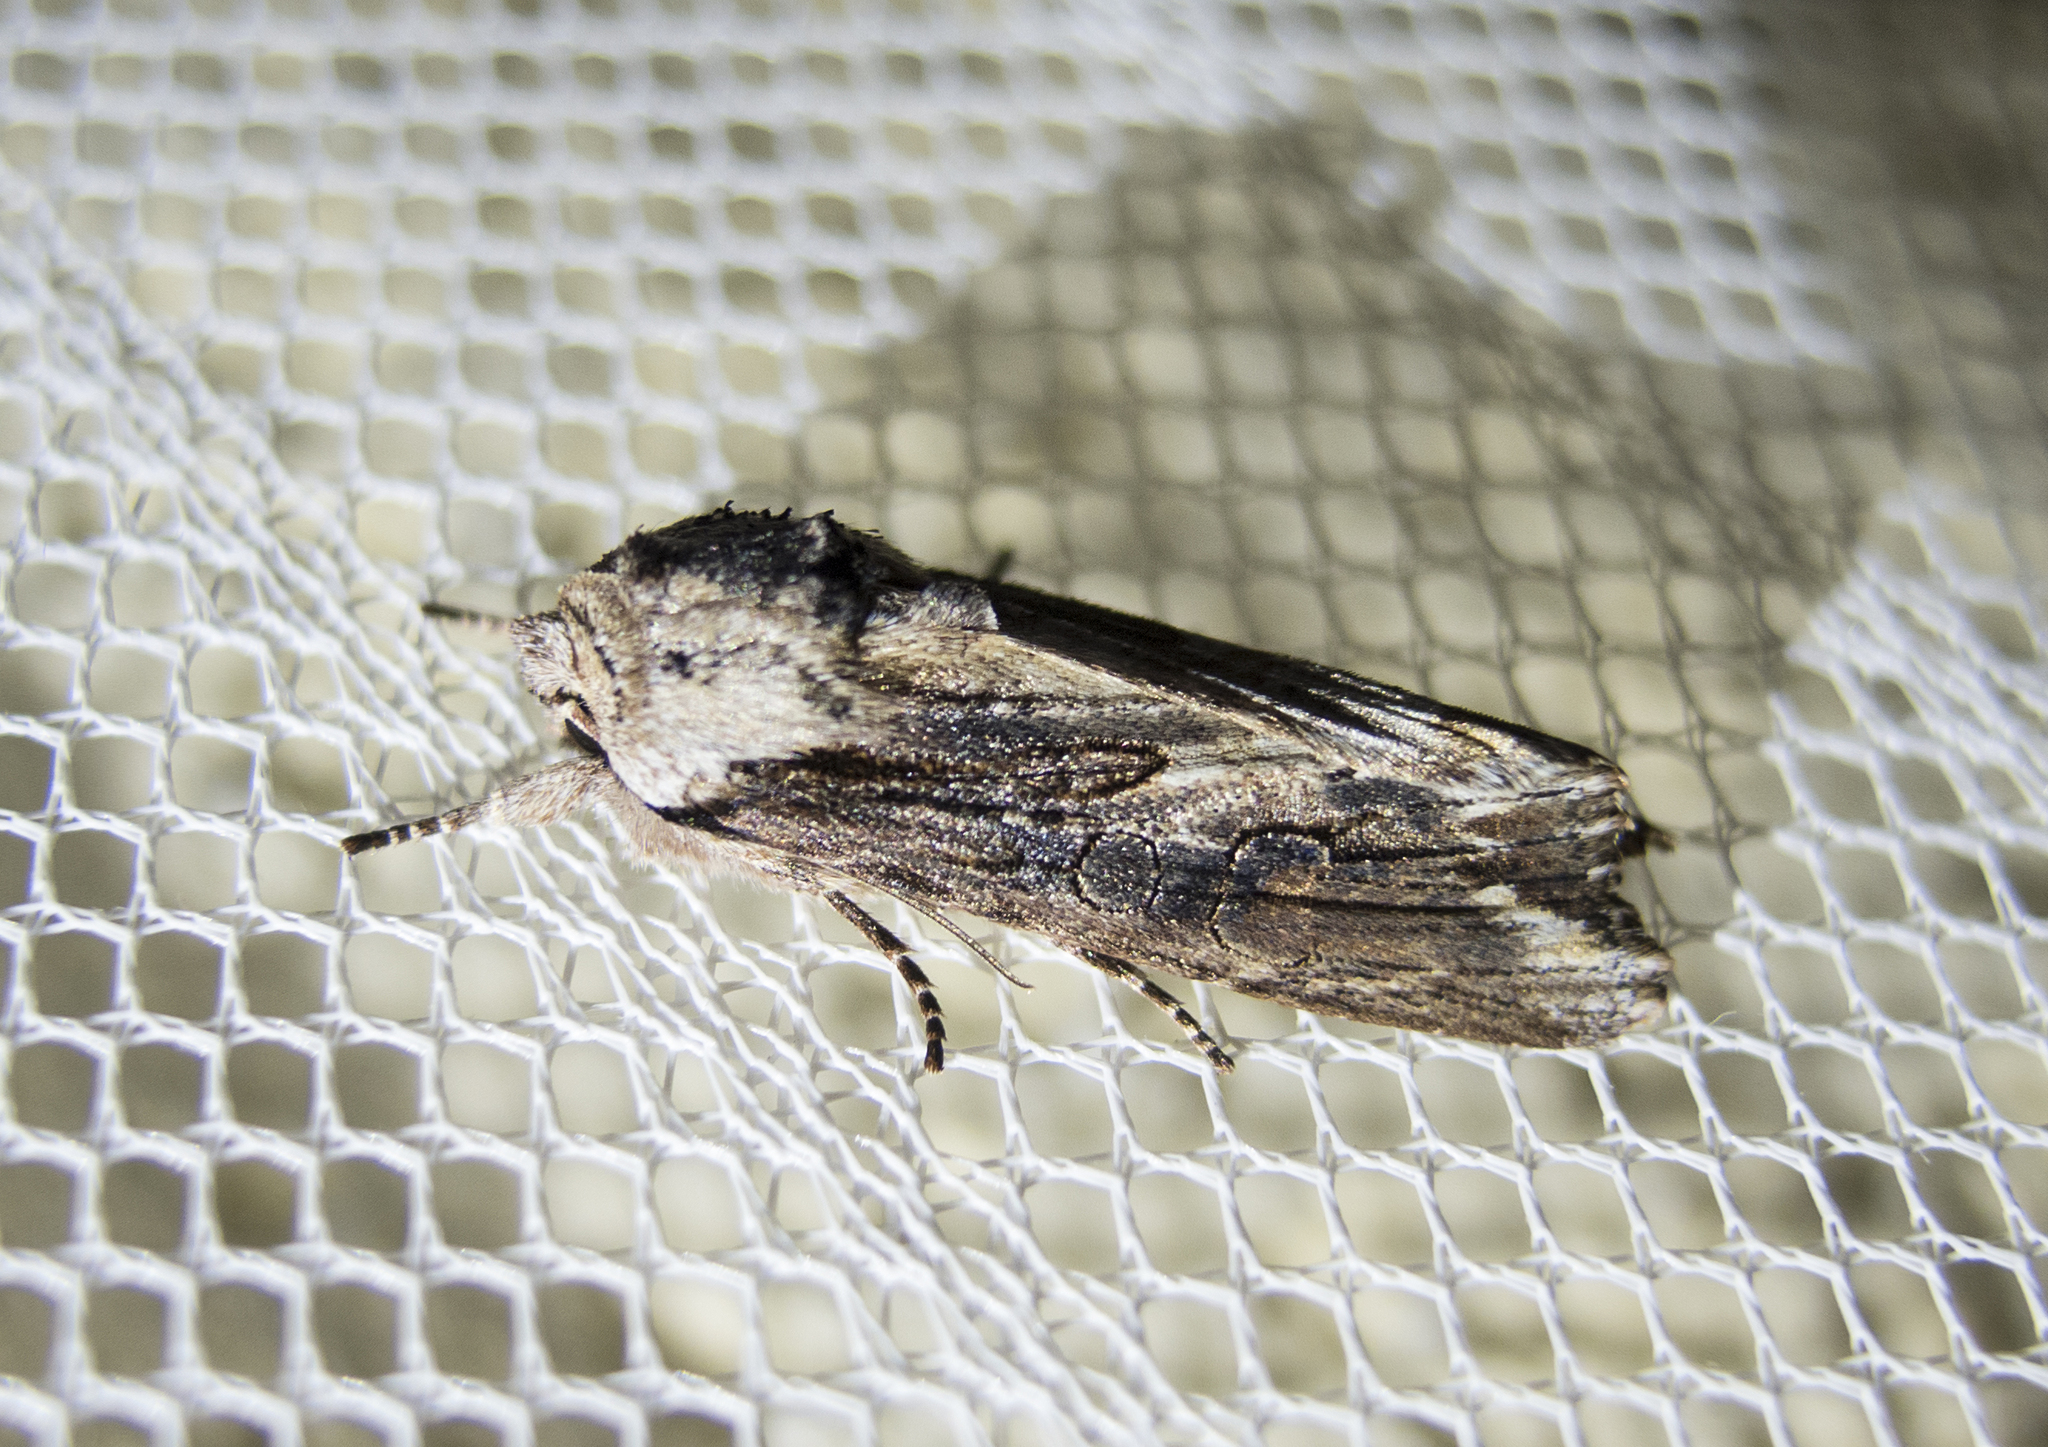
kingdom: Animalia
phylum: Arthropoda
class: Insecta
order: Lepidoptera
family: Noctuidae
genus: Egira
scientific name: Egira
